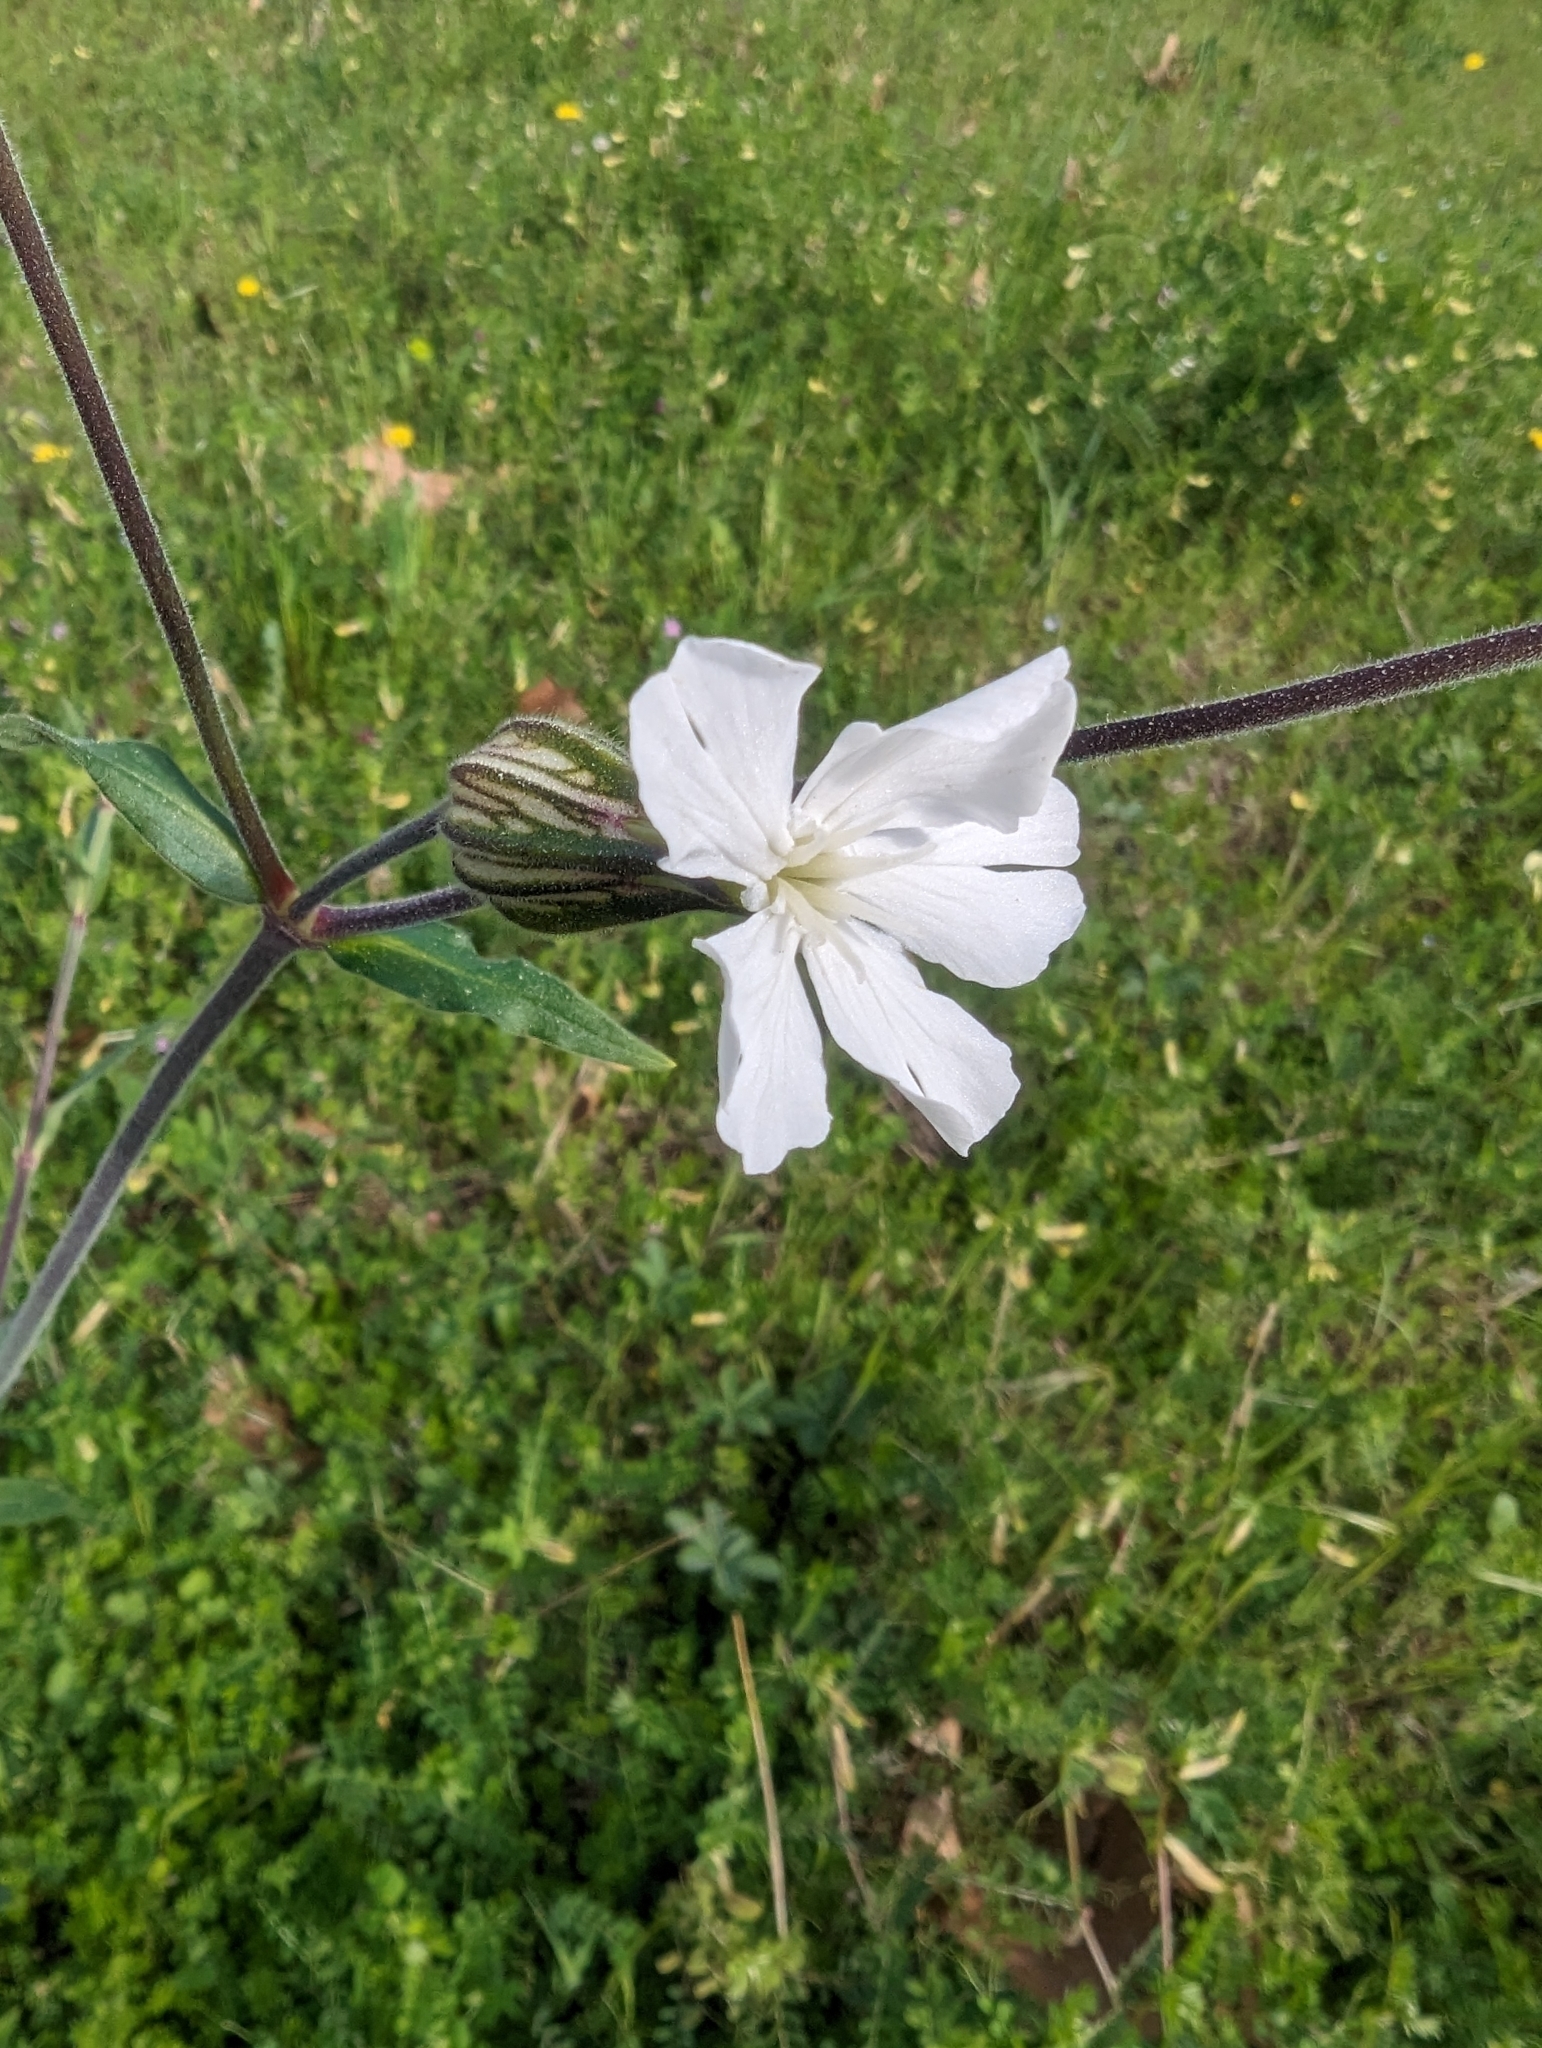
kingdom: Plantae
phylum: Tracheophyta
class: Magnoliopsida
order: Caryophyllales
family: Caryophyllaceae
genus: Silene
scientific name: Silene latifolia
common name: White campion
